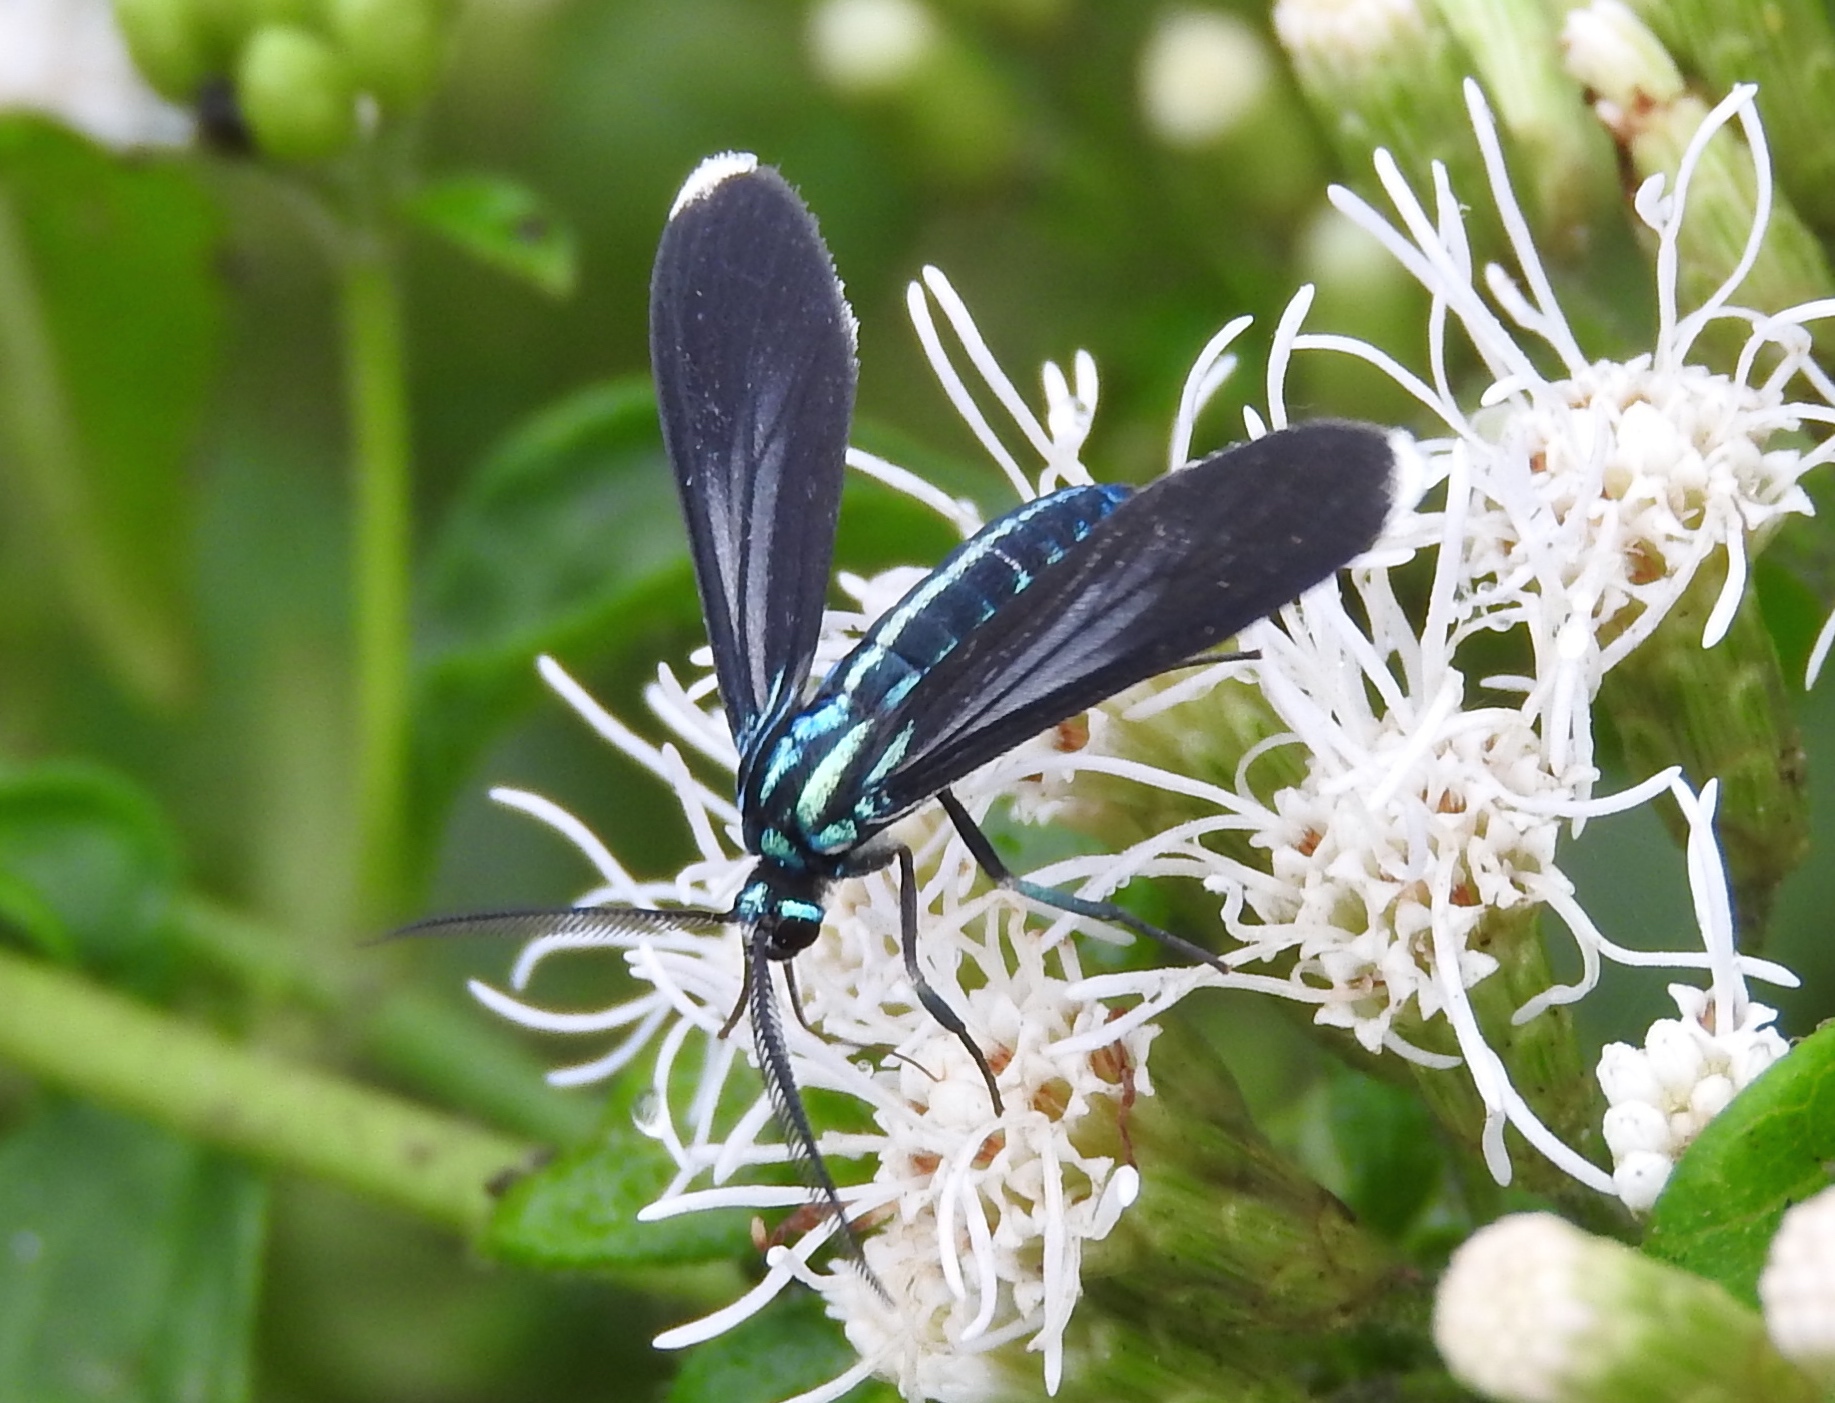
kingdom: Animalia
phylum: Arthropoda
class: Insecta
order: Lepidoptera
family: Erebidae
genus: Uranophora
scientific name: Uranophora leucotela
